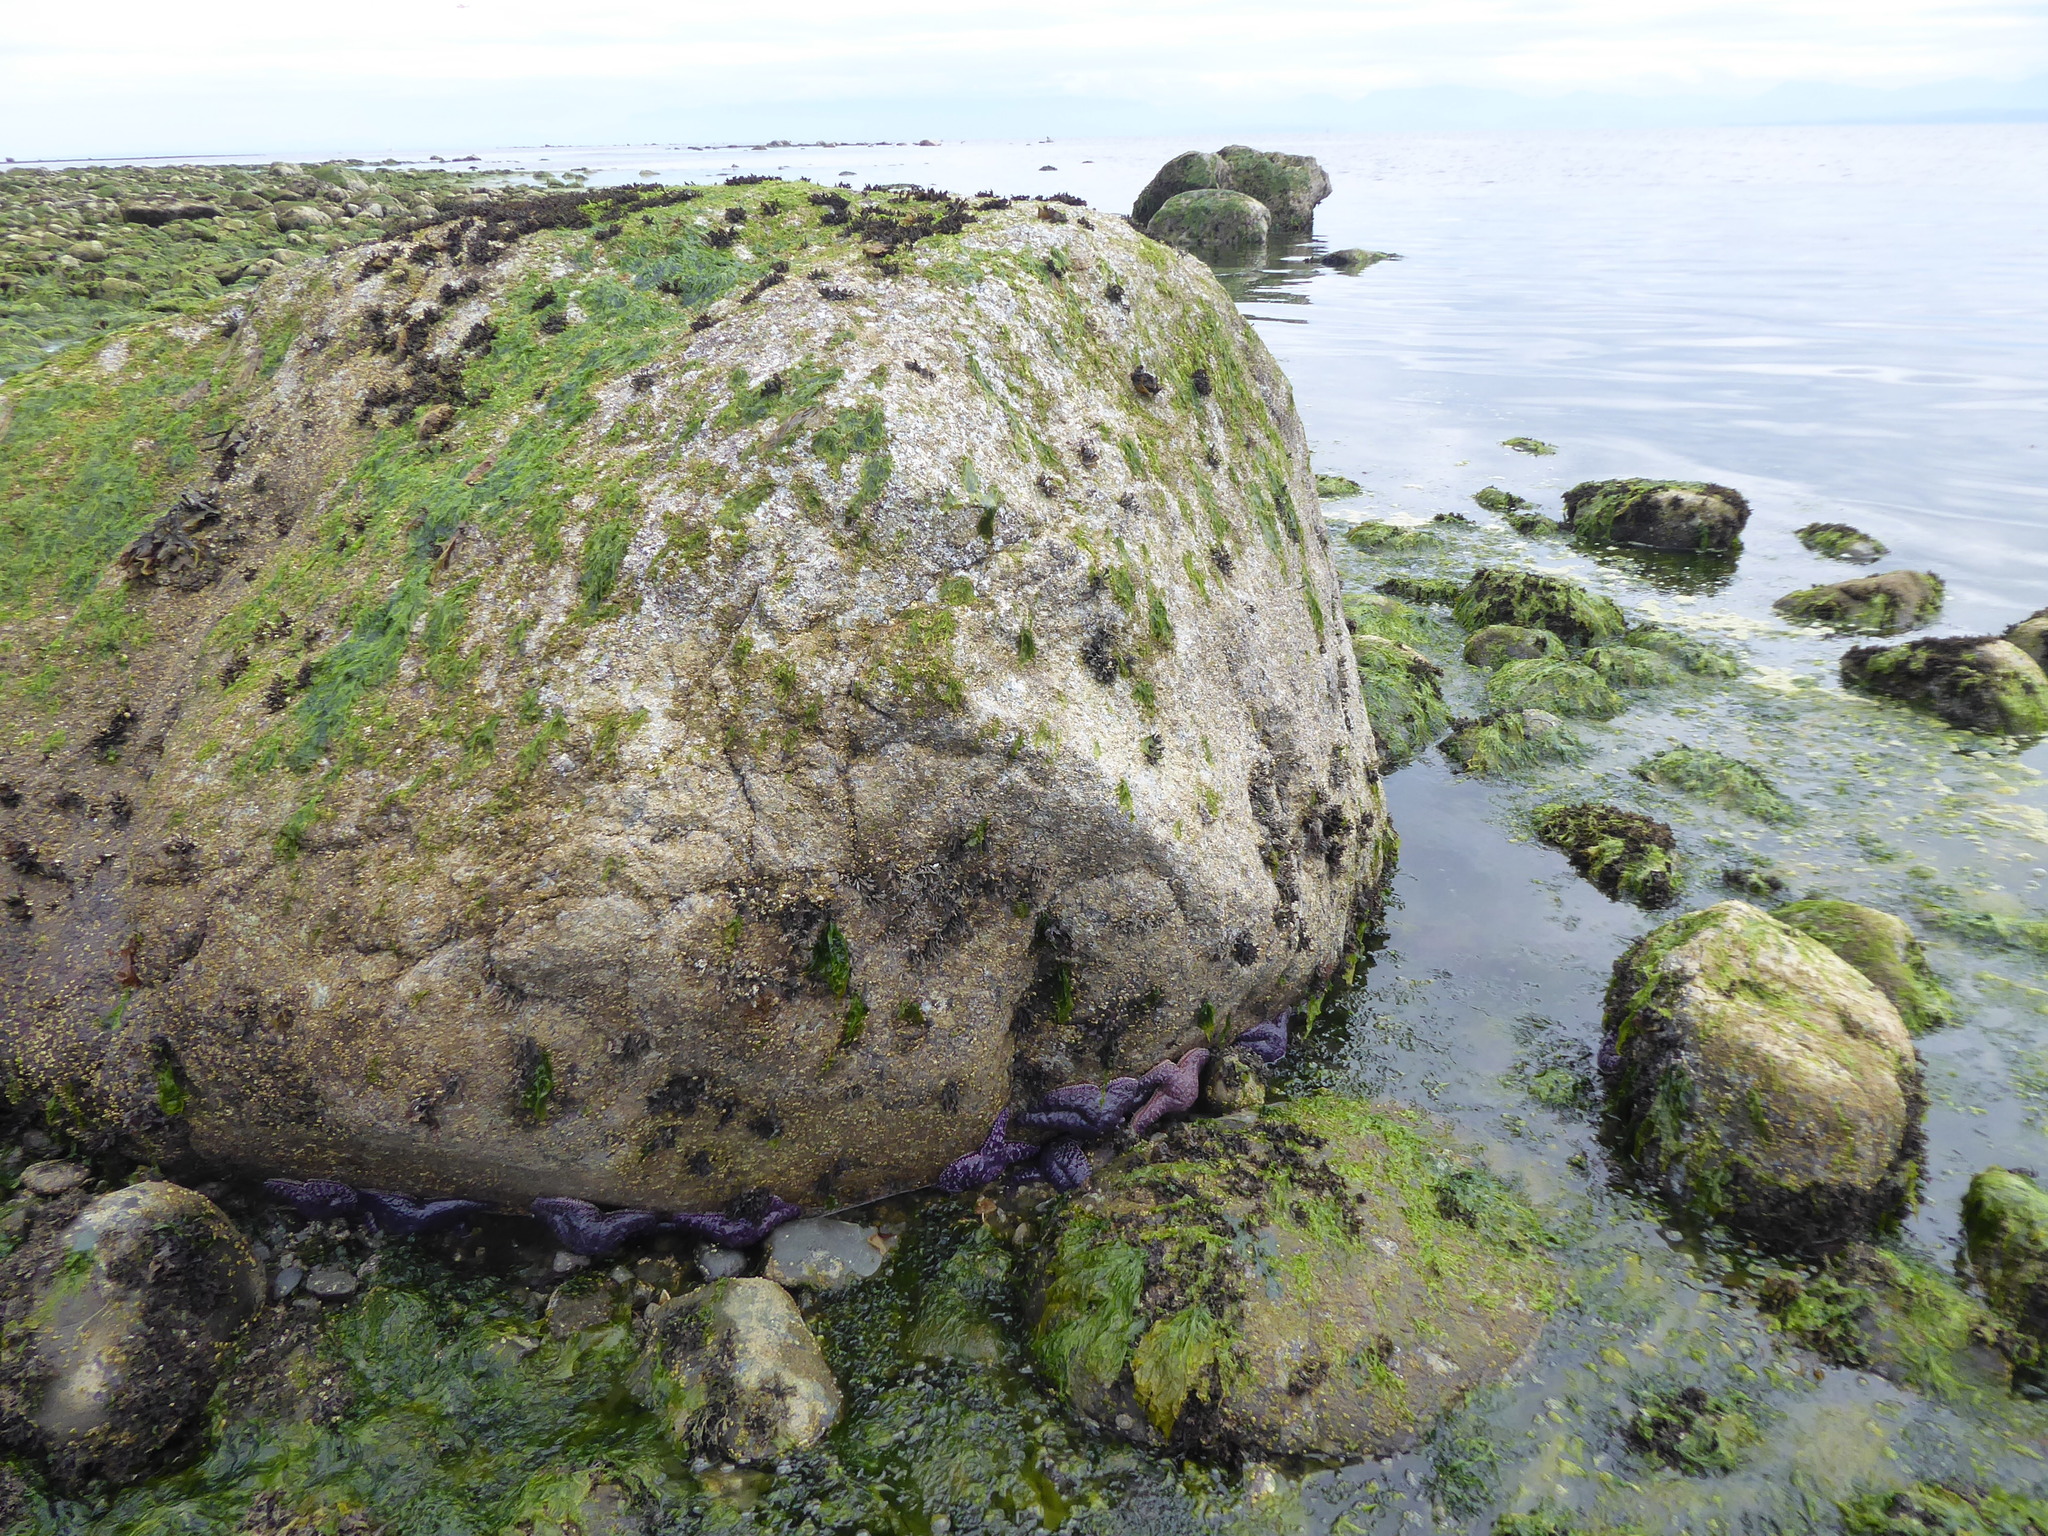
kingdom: Animalia
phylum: Echinodermata
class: Asteroidea
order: Forcipulatida
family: Asteriidae
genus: Pisaster
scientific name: Pisaster ochraceus
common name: Ochre stars
